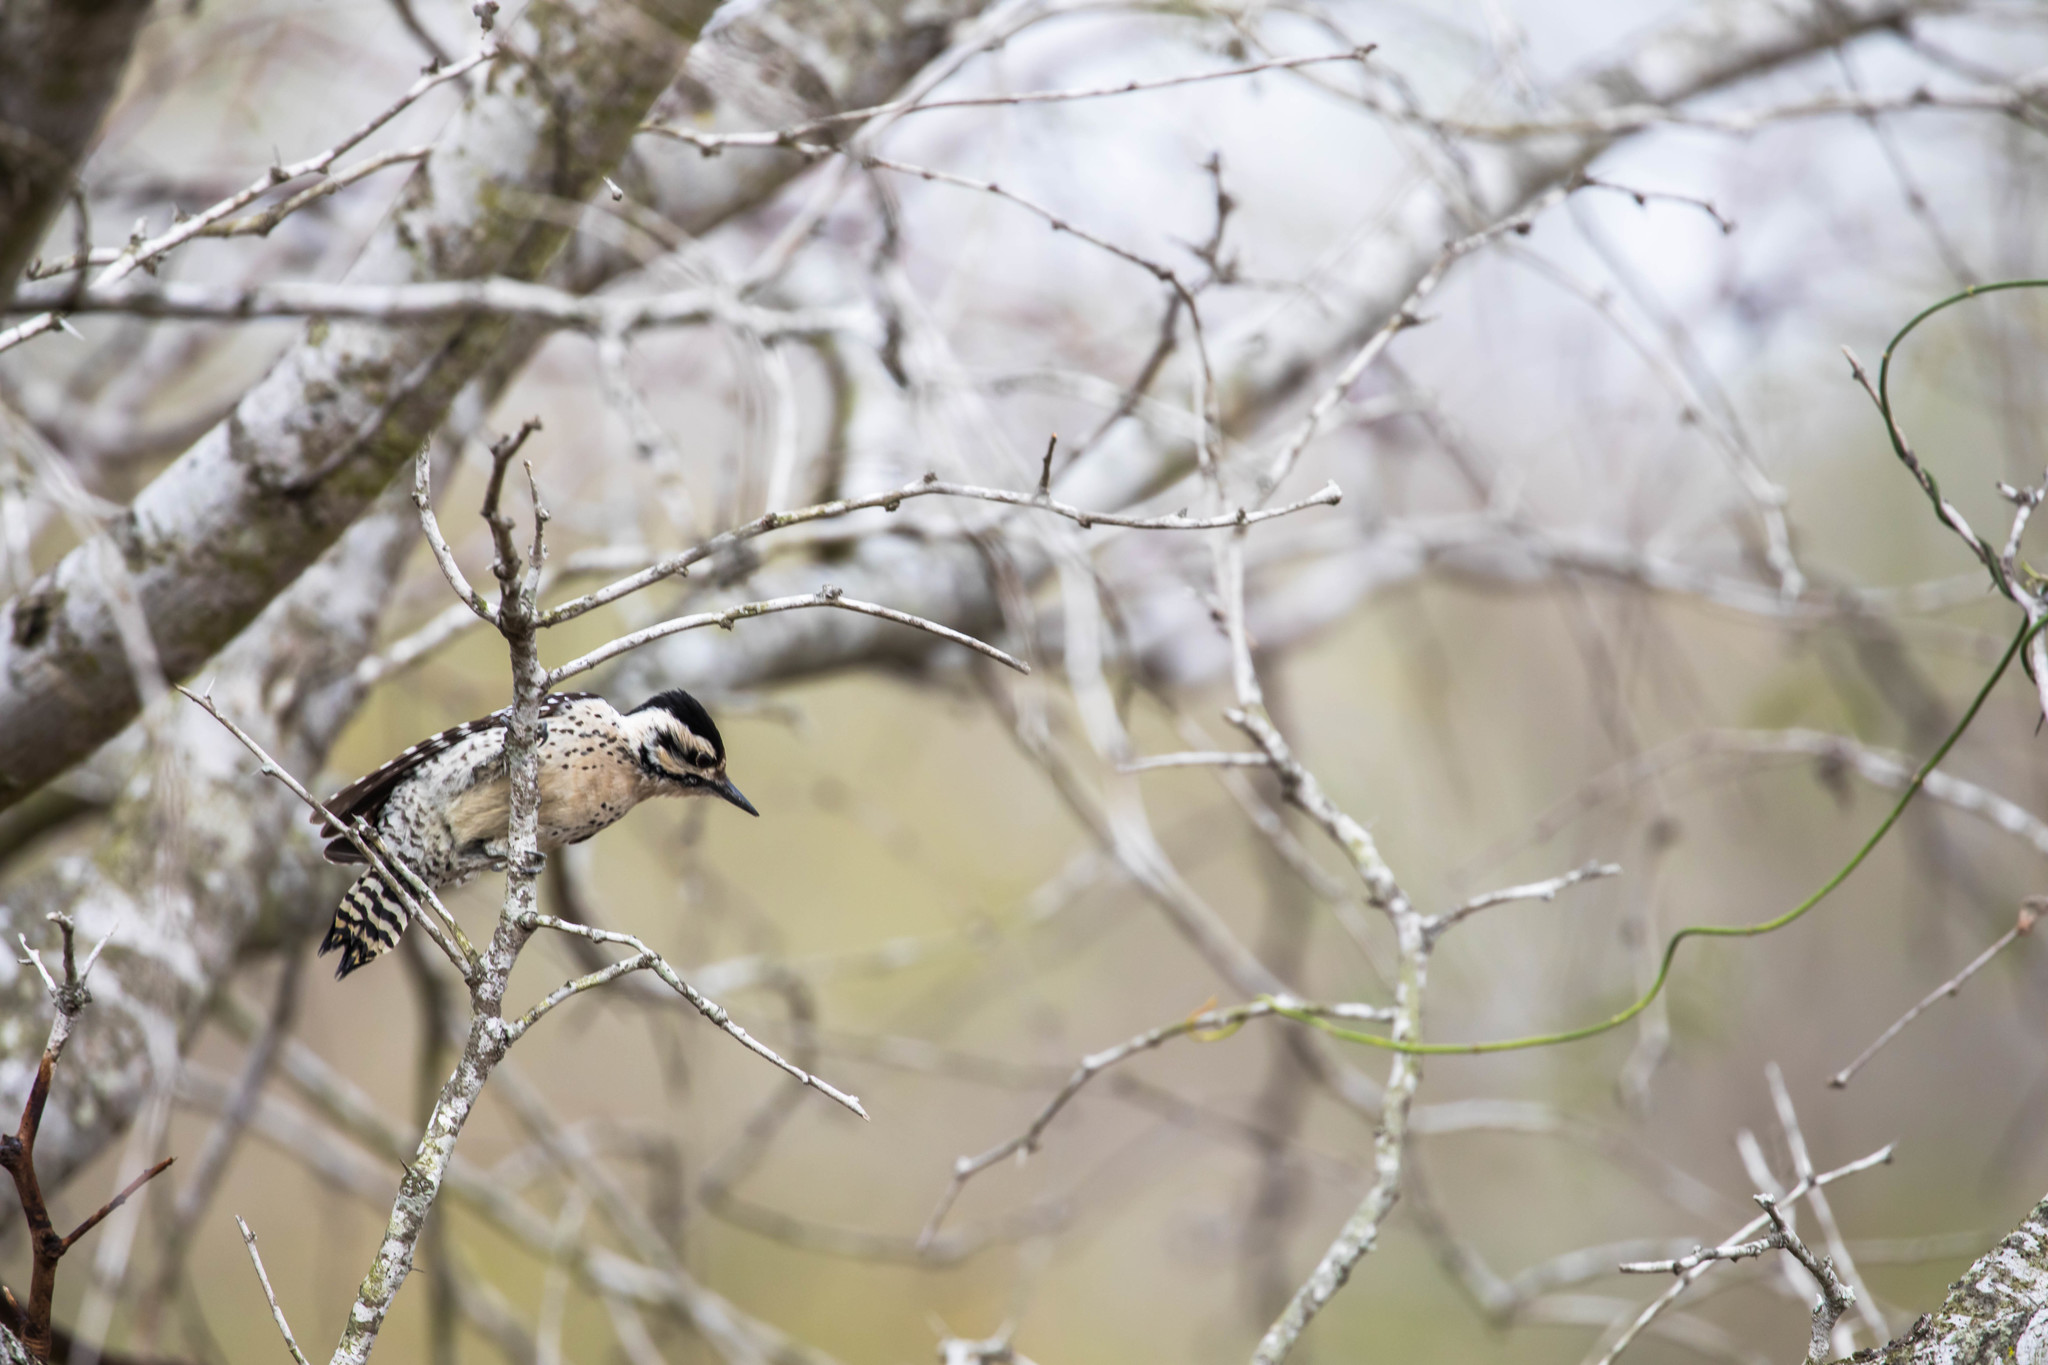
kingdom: Animalia
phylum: Chordata
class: Aves
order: Piciformes
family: Picidae
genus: Dryobates
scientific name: Dryobates scalaris
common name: Ladder-backed woodpecker
